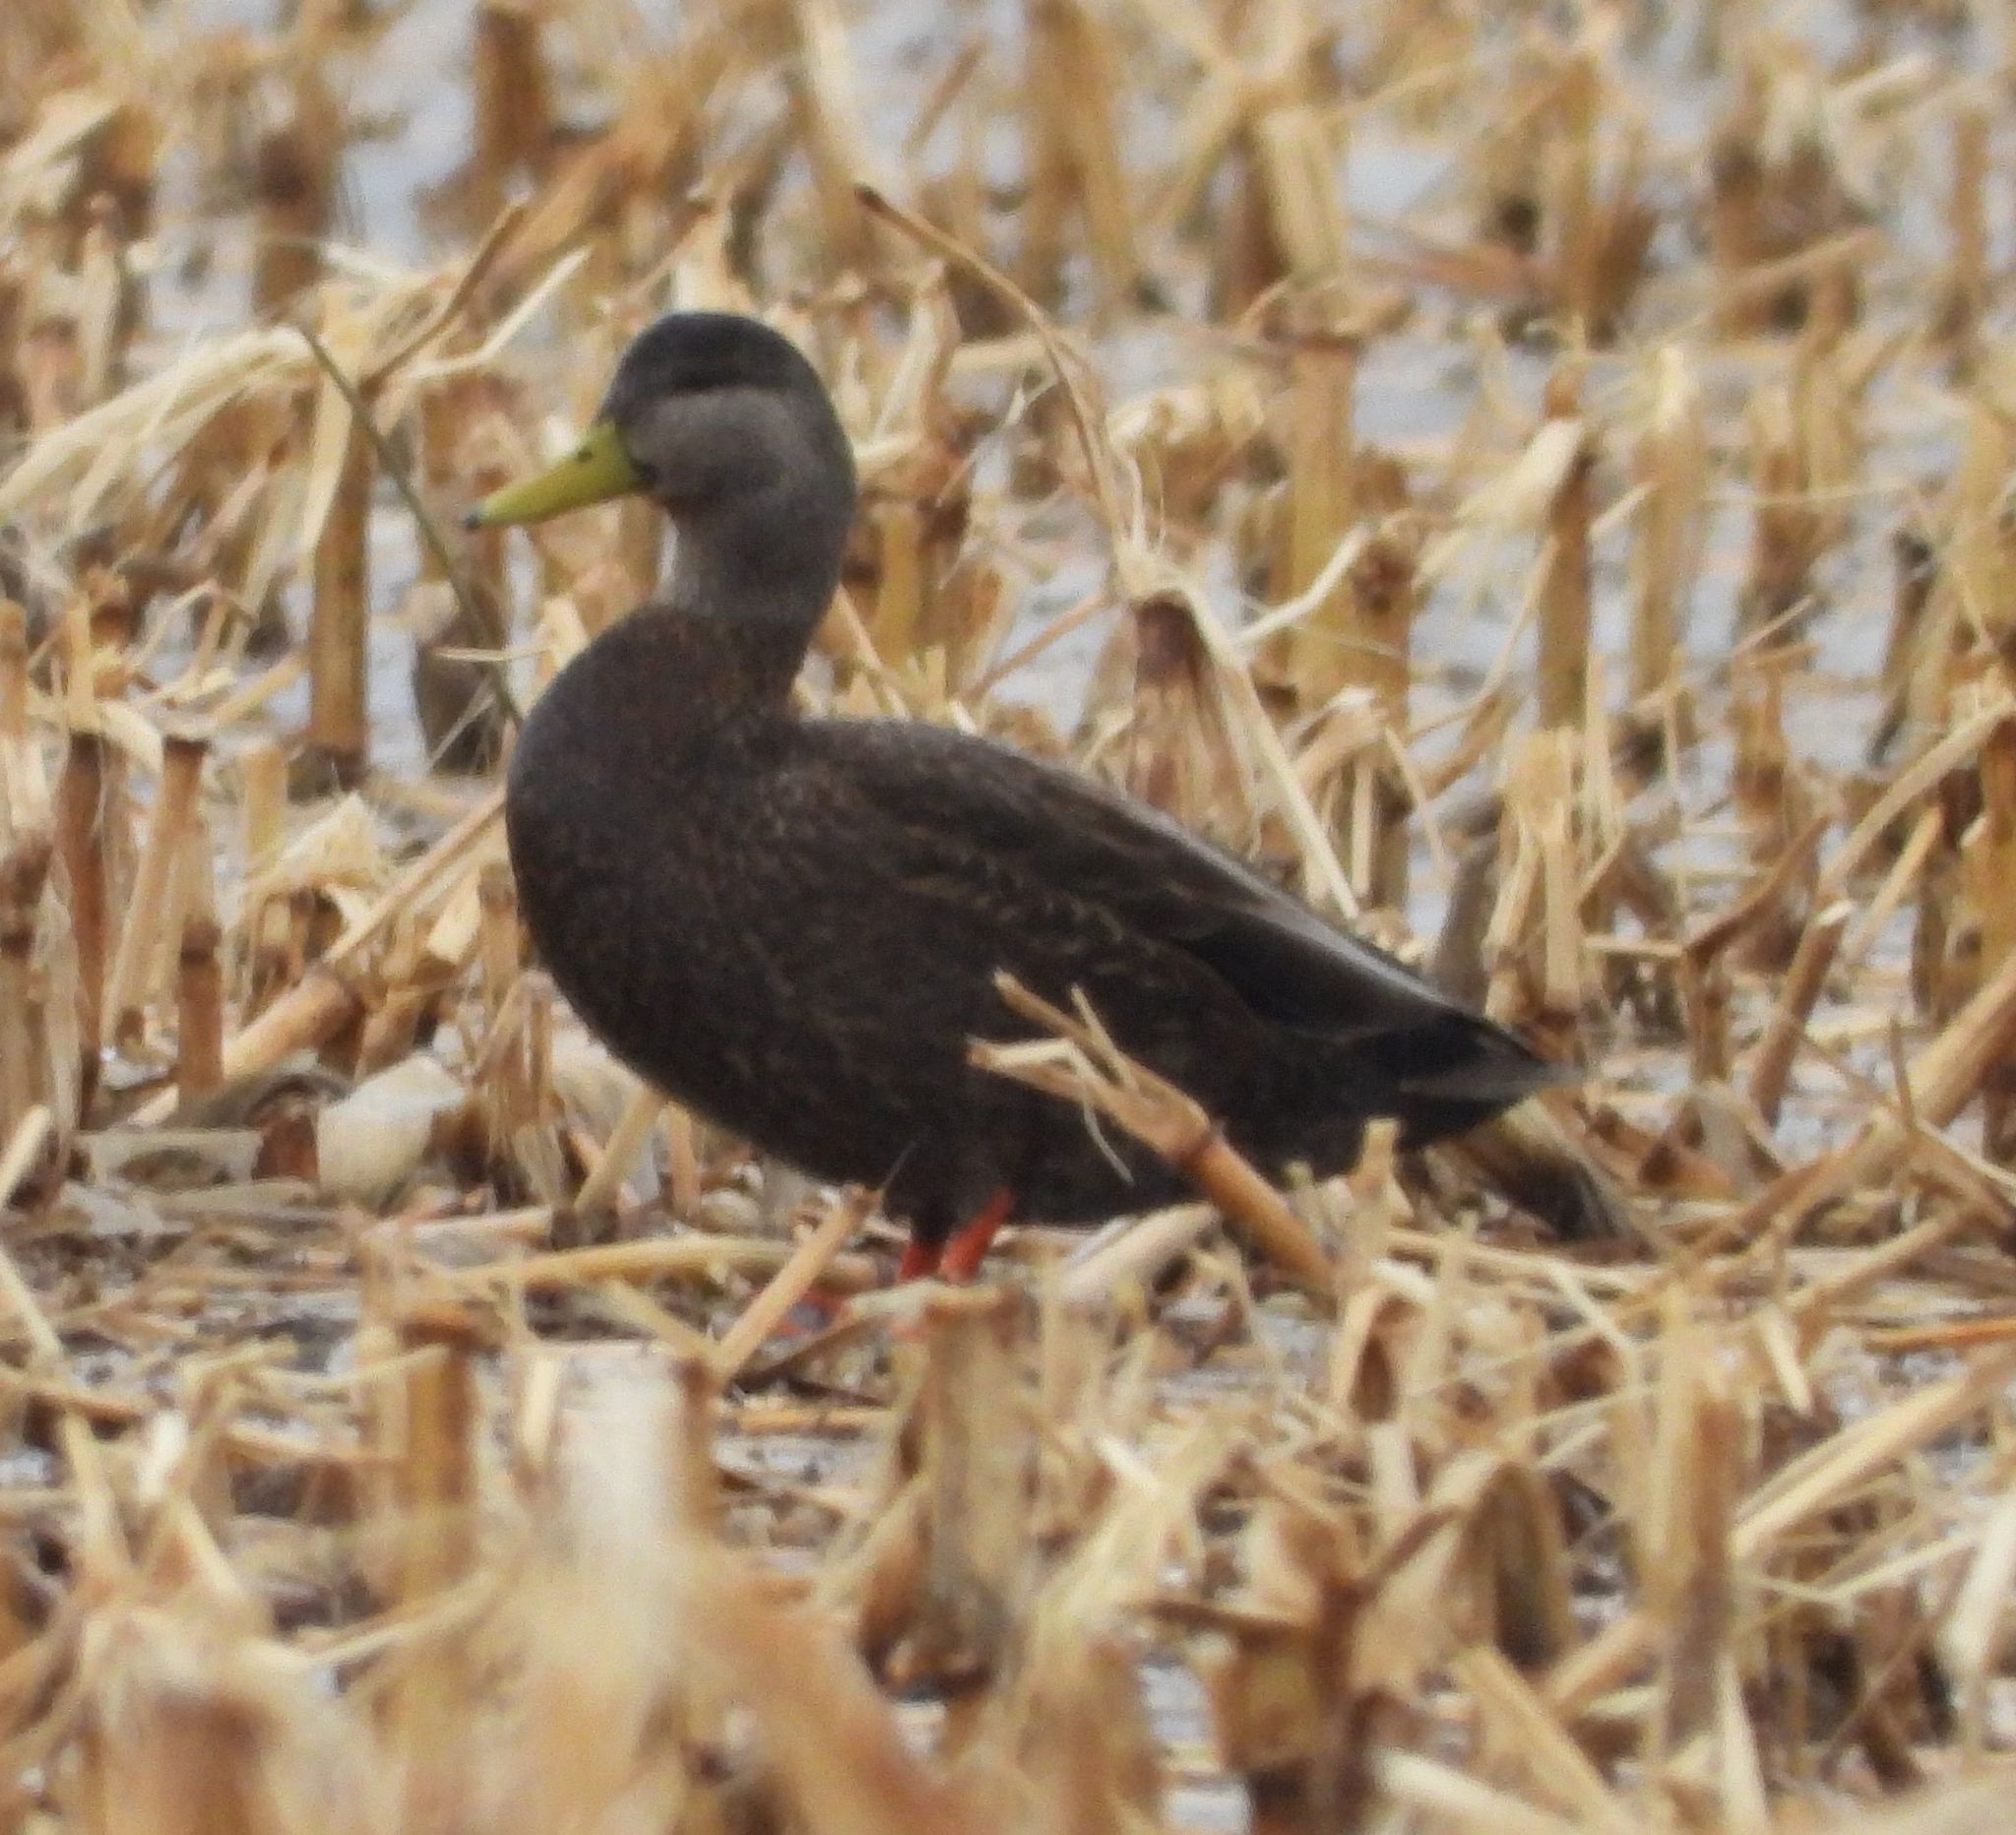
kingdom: Animalia
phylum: Chordata
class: Aves
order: Anseriformes
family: Anatidae
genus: Anas
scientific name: Anas rubripes
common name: American black duck
